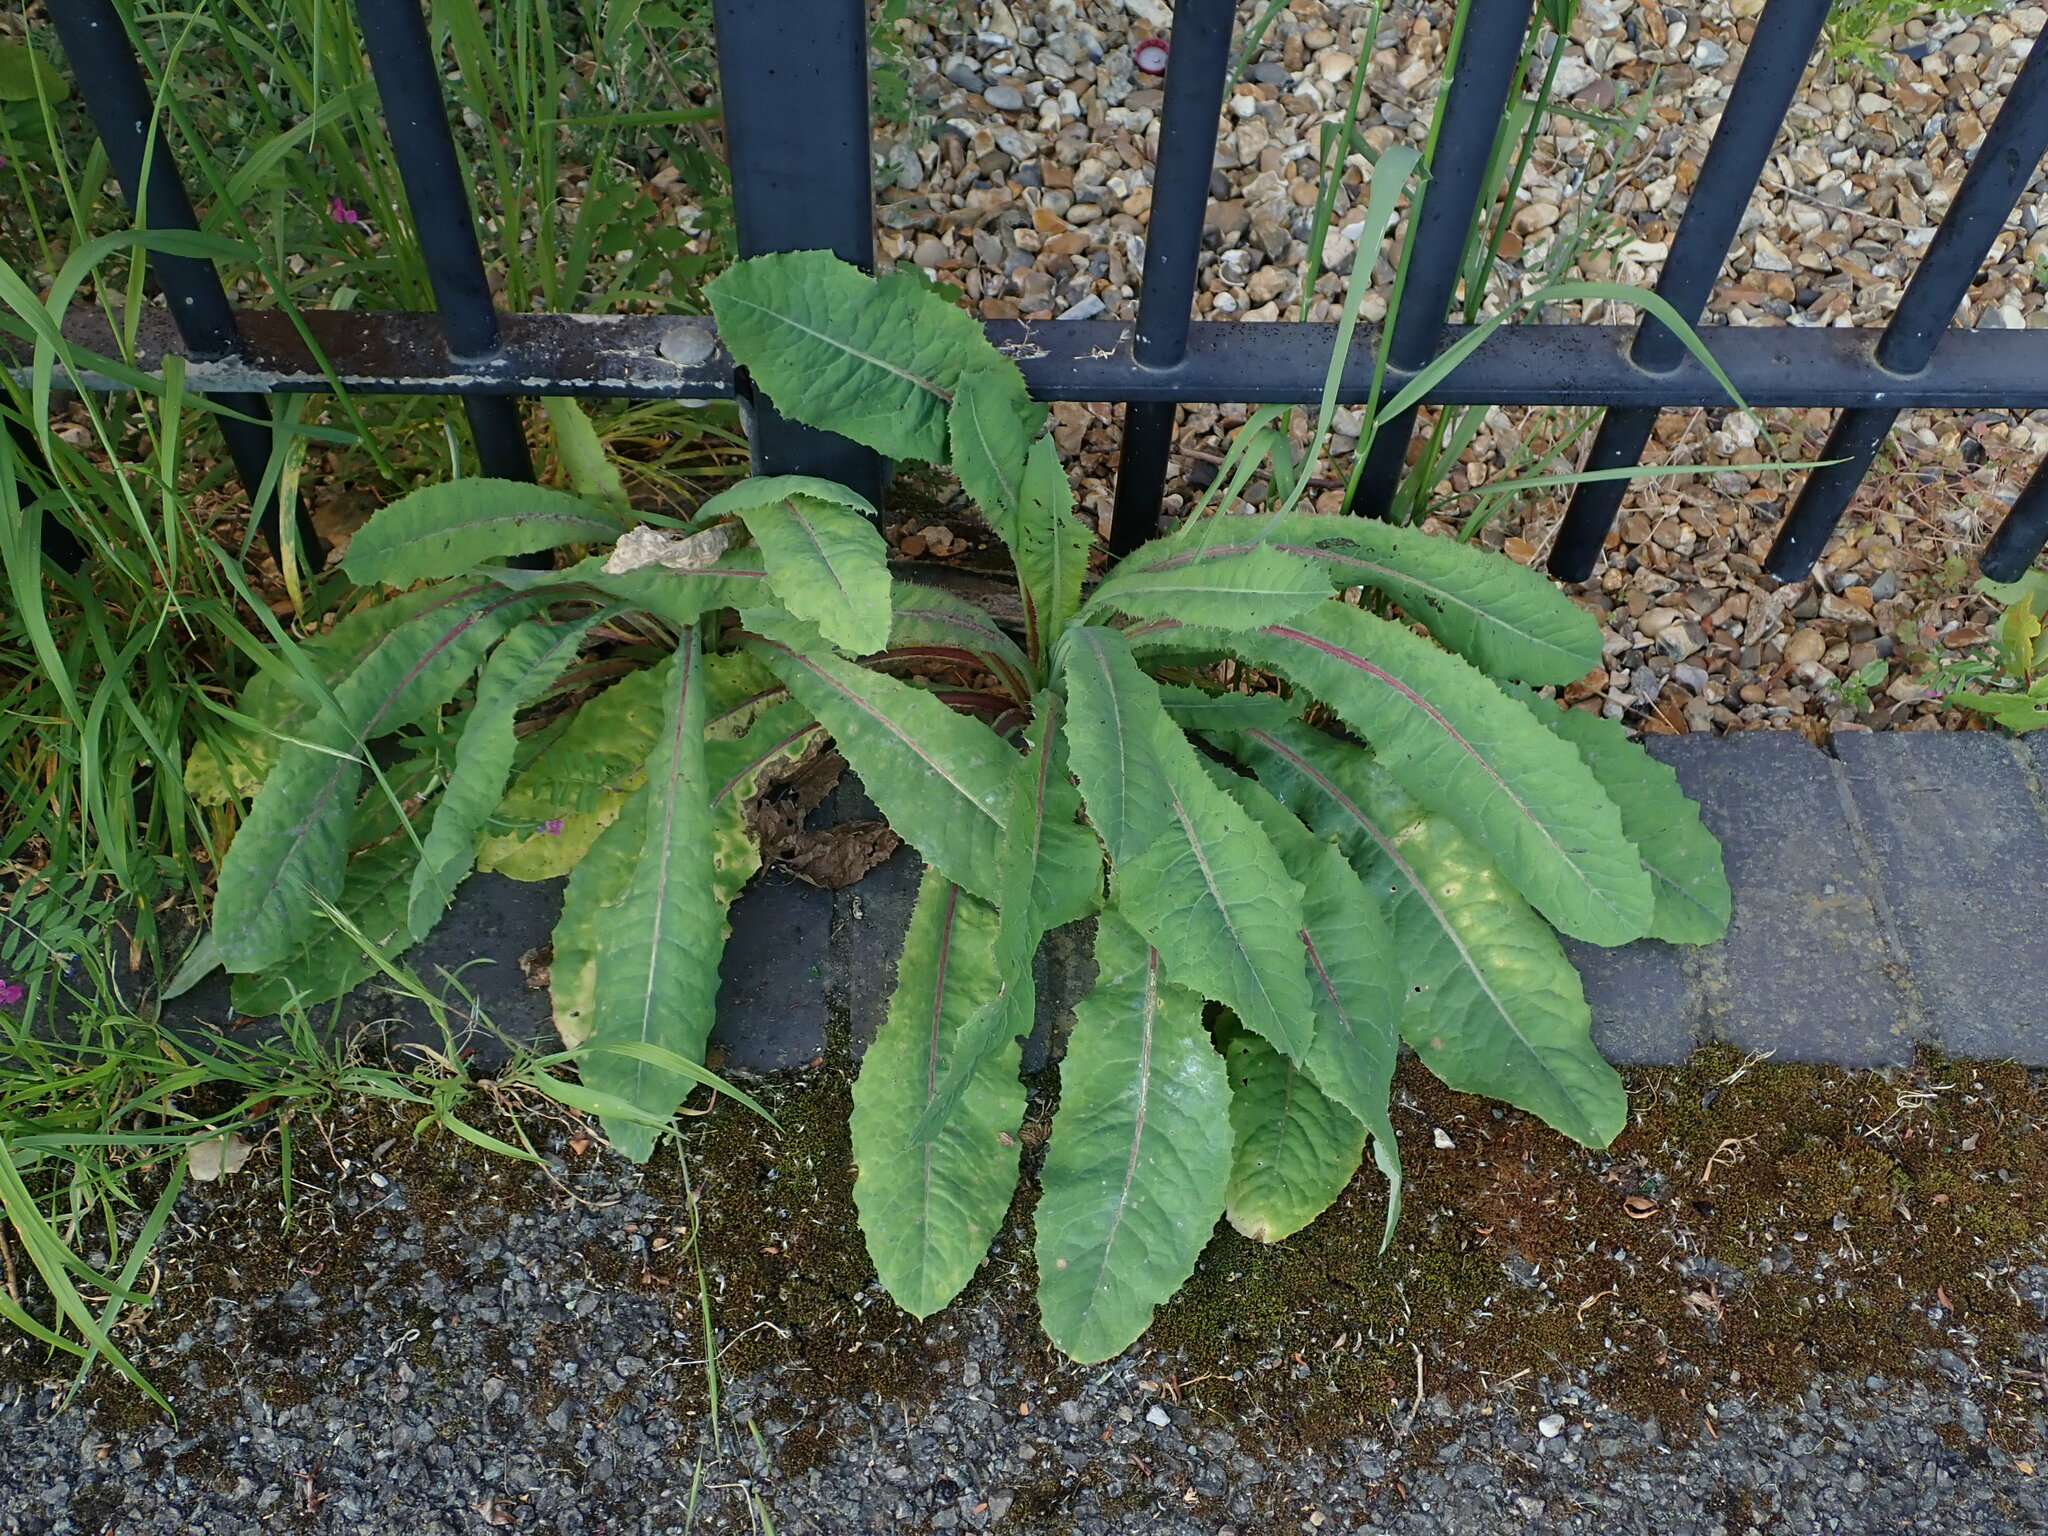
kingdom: Plantae
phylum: Tracheophyta
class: Magnoliopsida
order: Asterales
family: Asteraceae
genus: Lactuca
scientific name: Lactuca virosa
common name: Great lettuce
